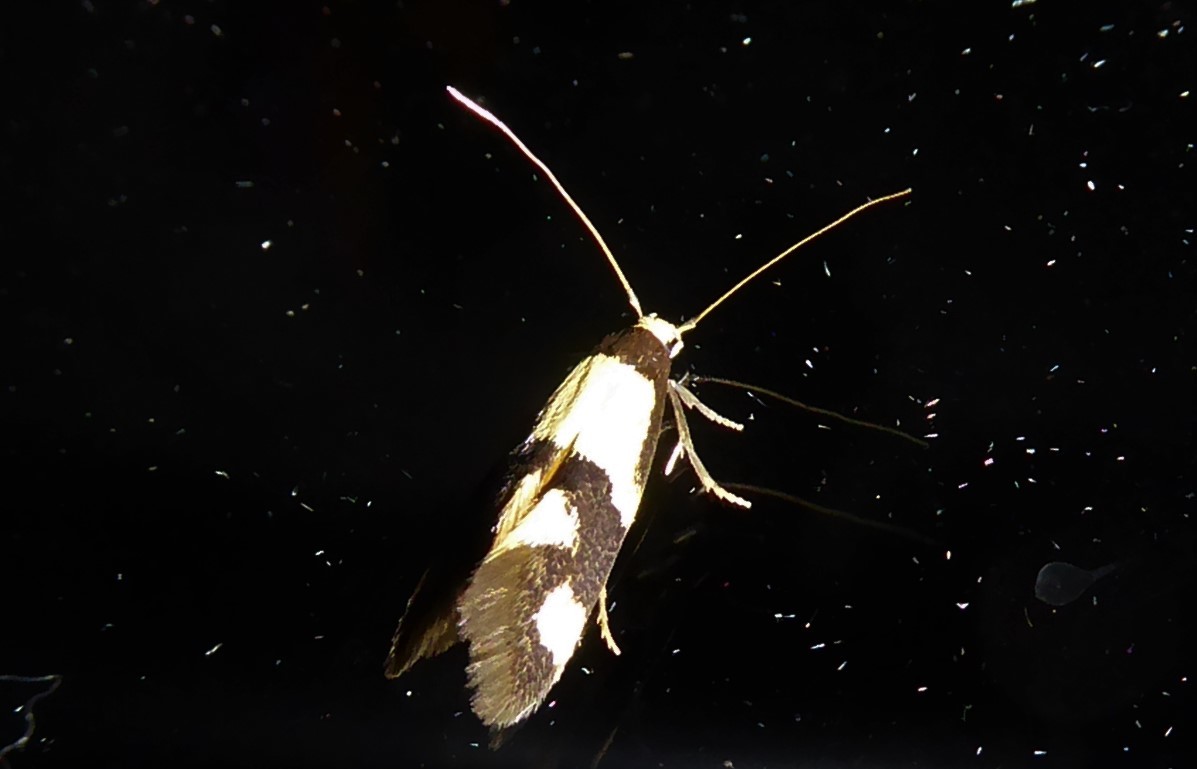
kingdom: Animalia
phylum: Arthropoda
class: Insecta
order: Lepidoptera
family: Tineidae
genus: Opogona
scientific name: Opogona comptella
